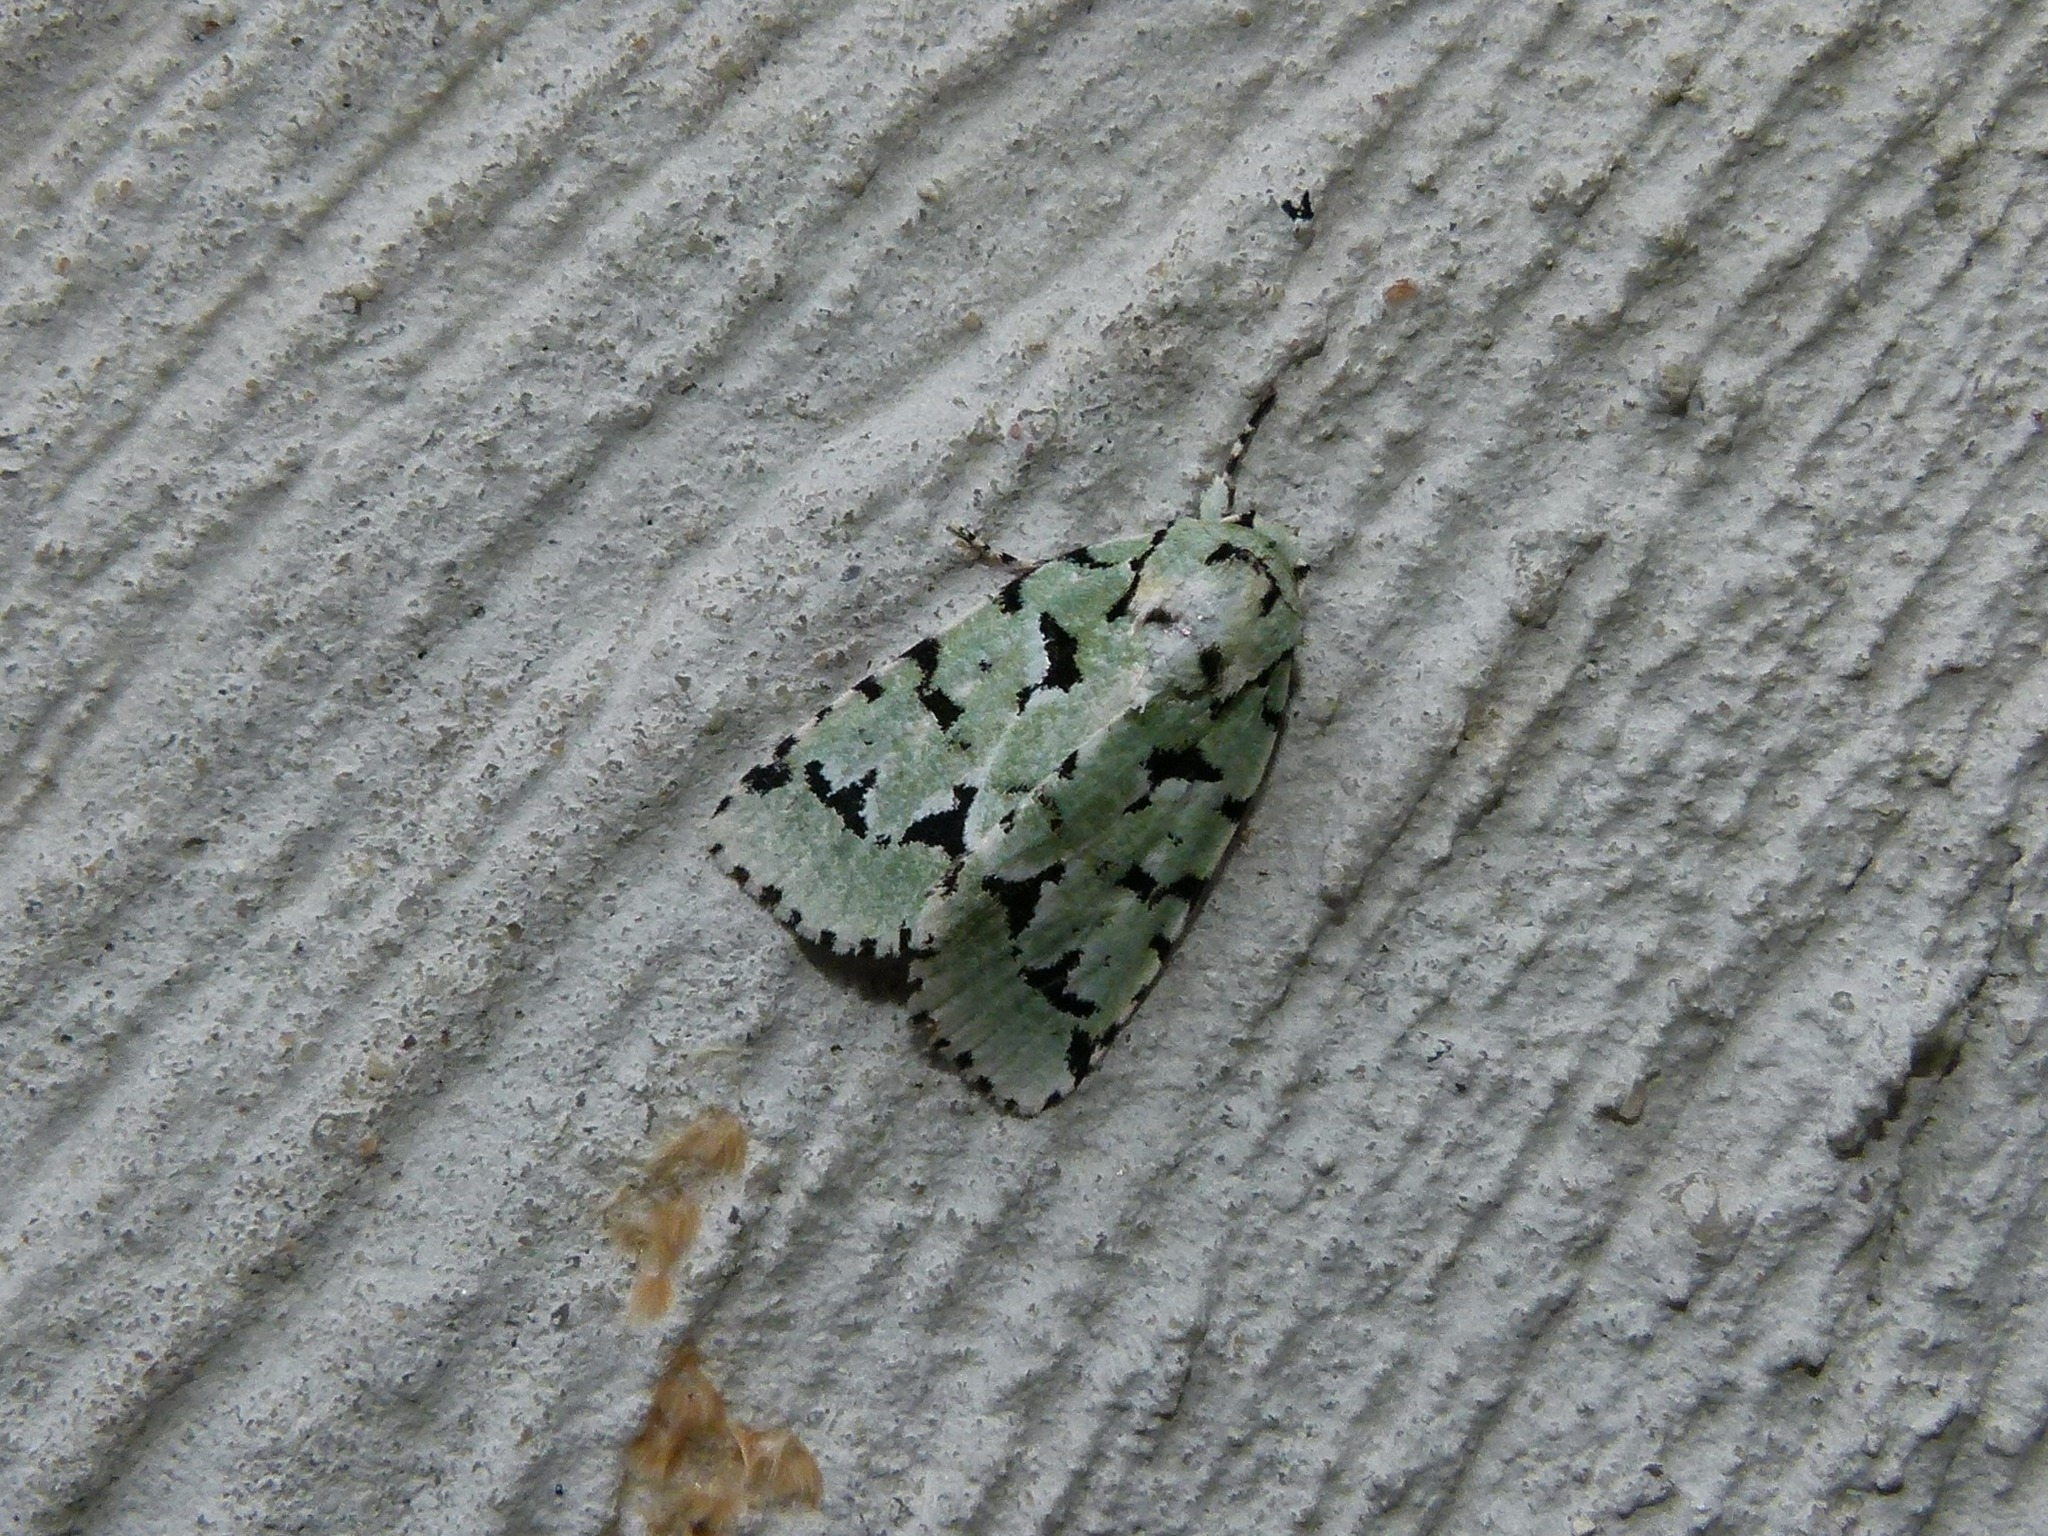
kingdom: Animalia
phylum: Arthropoda
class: Insecta
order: Lepidoptera
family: Noctuidae
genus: Acronicta
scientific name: Acronicta fallax
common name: Green marvel
